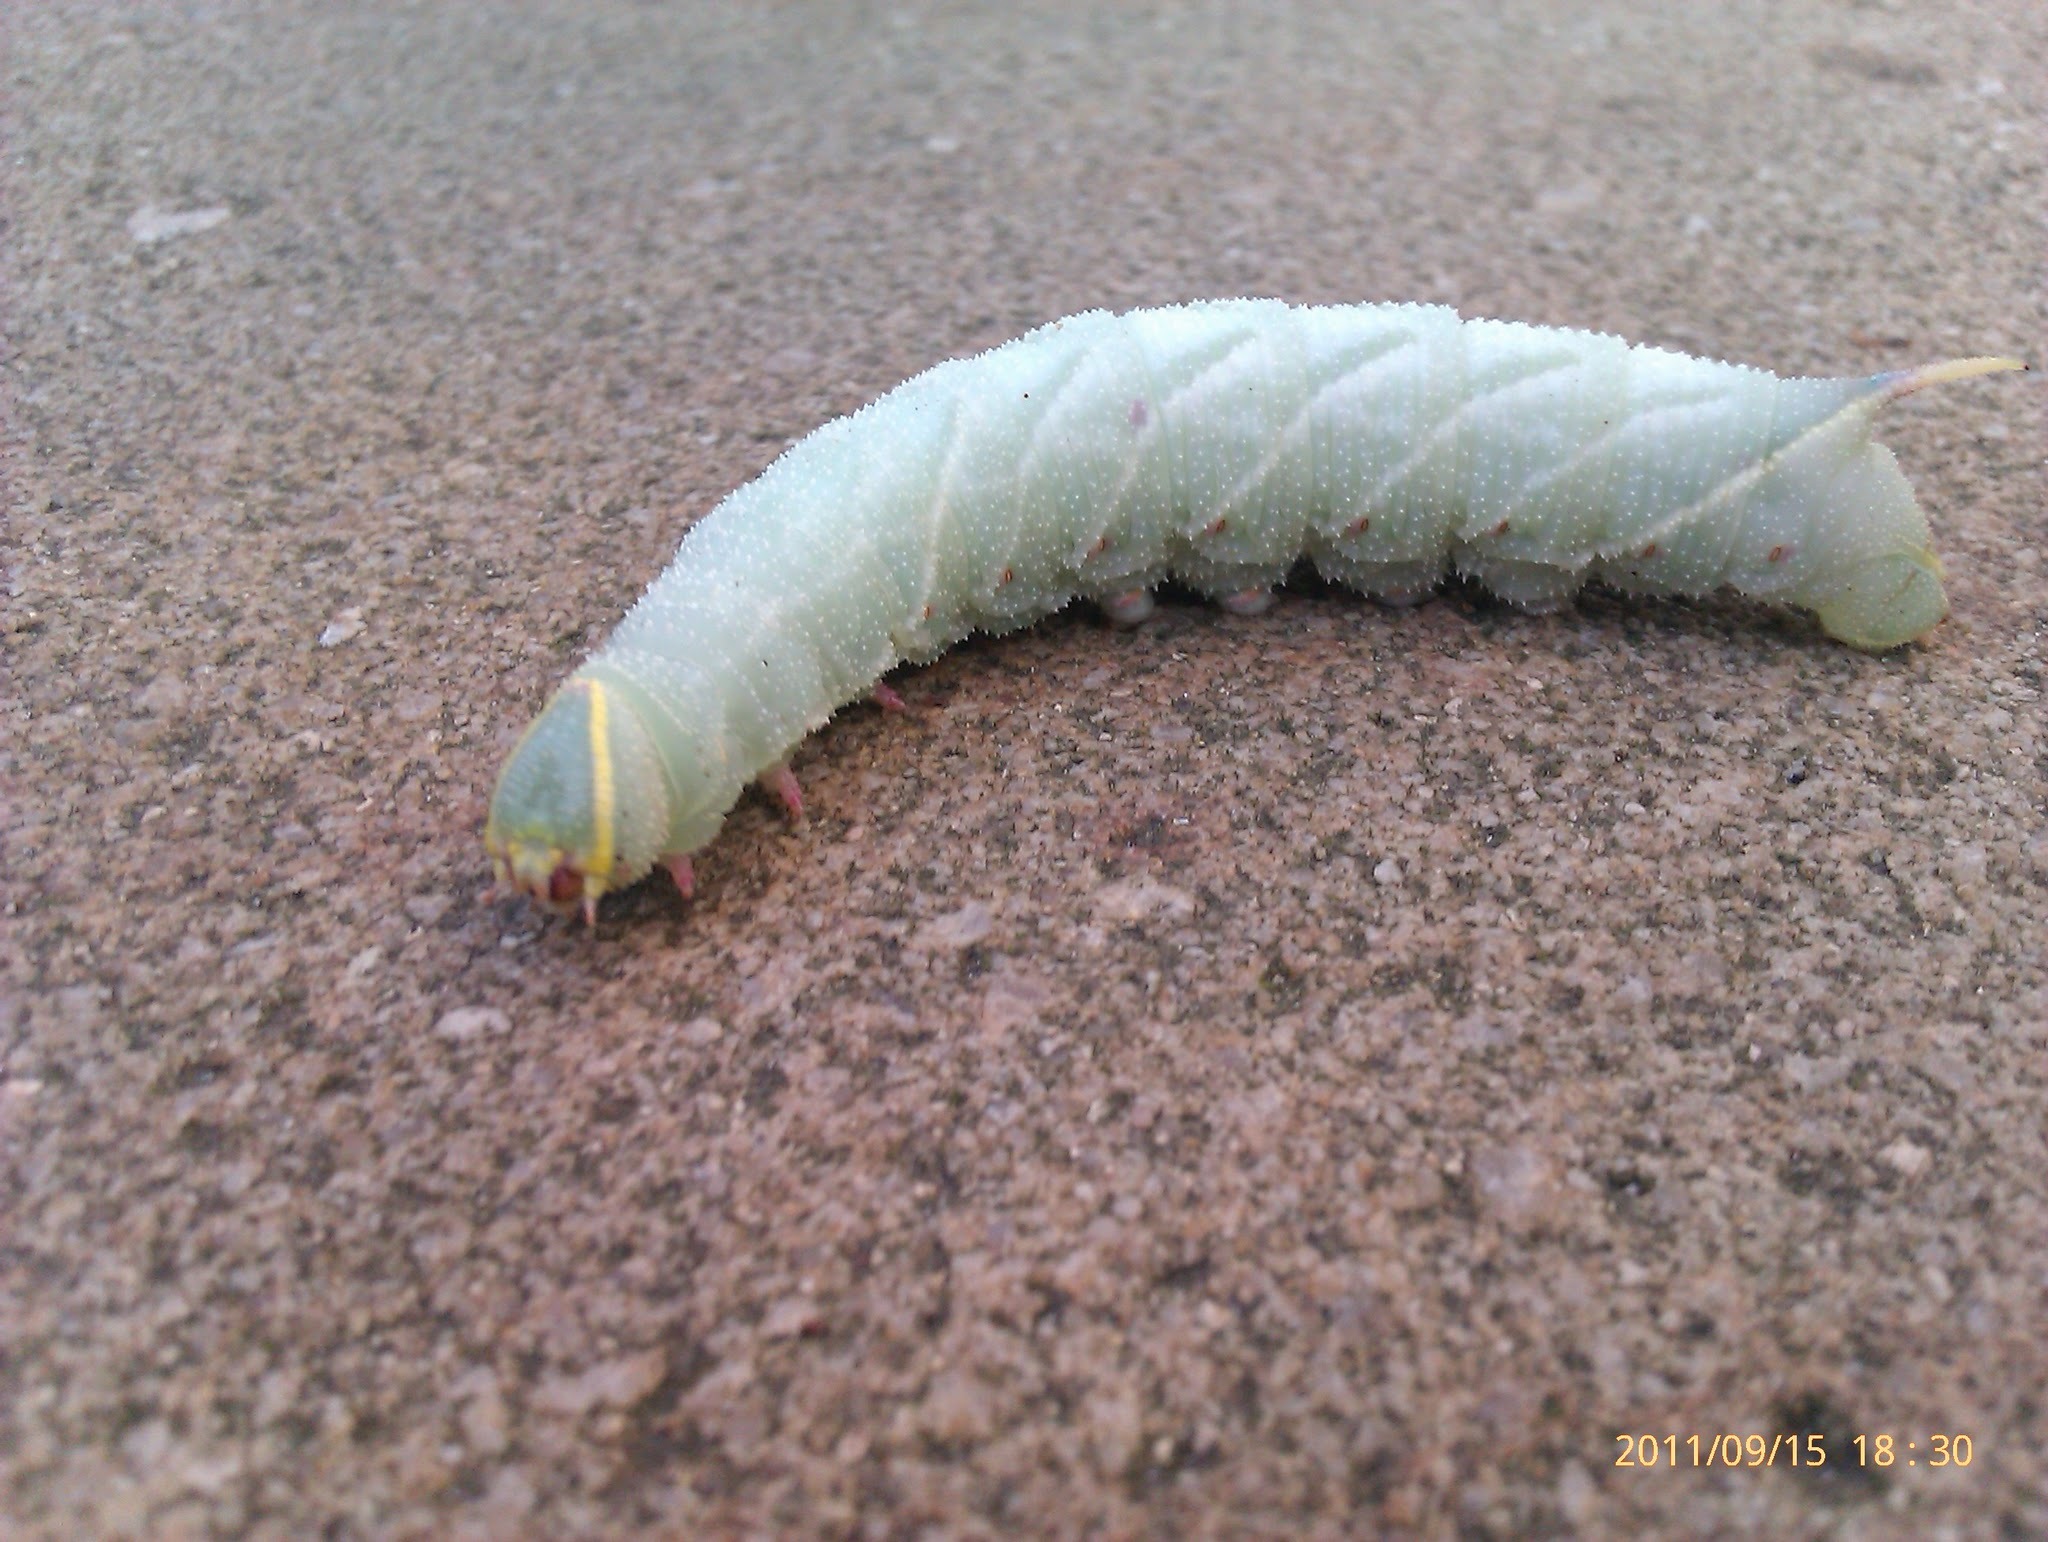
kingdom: Animalia
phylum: Arthropoda
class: Insecta
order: Lepidoptera
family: Sphingidae
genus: Laothoe
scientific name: Laothoe populi
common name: Poplar hawk-moth
